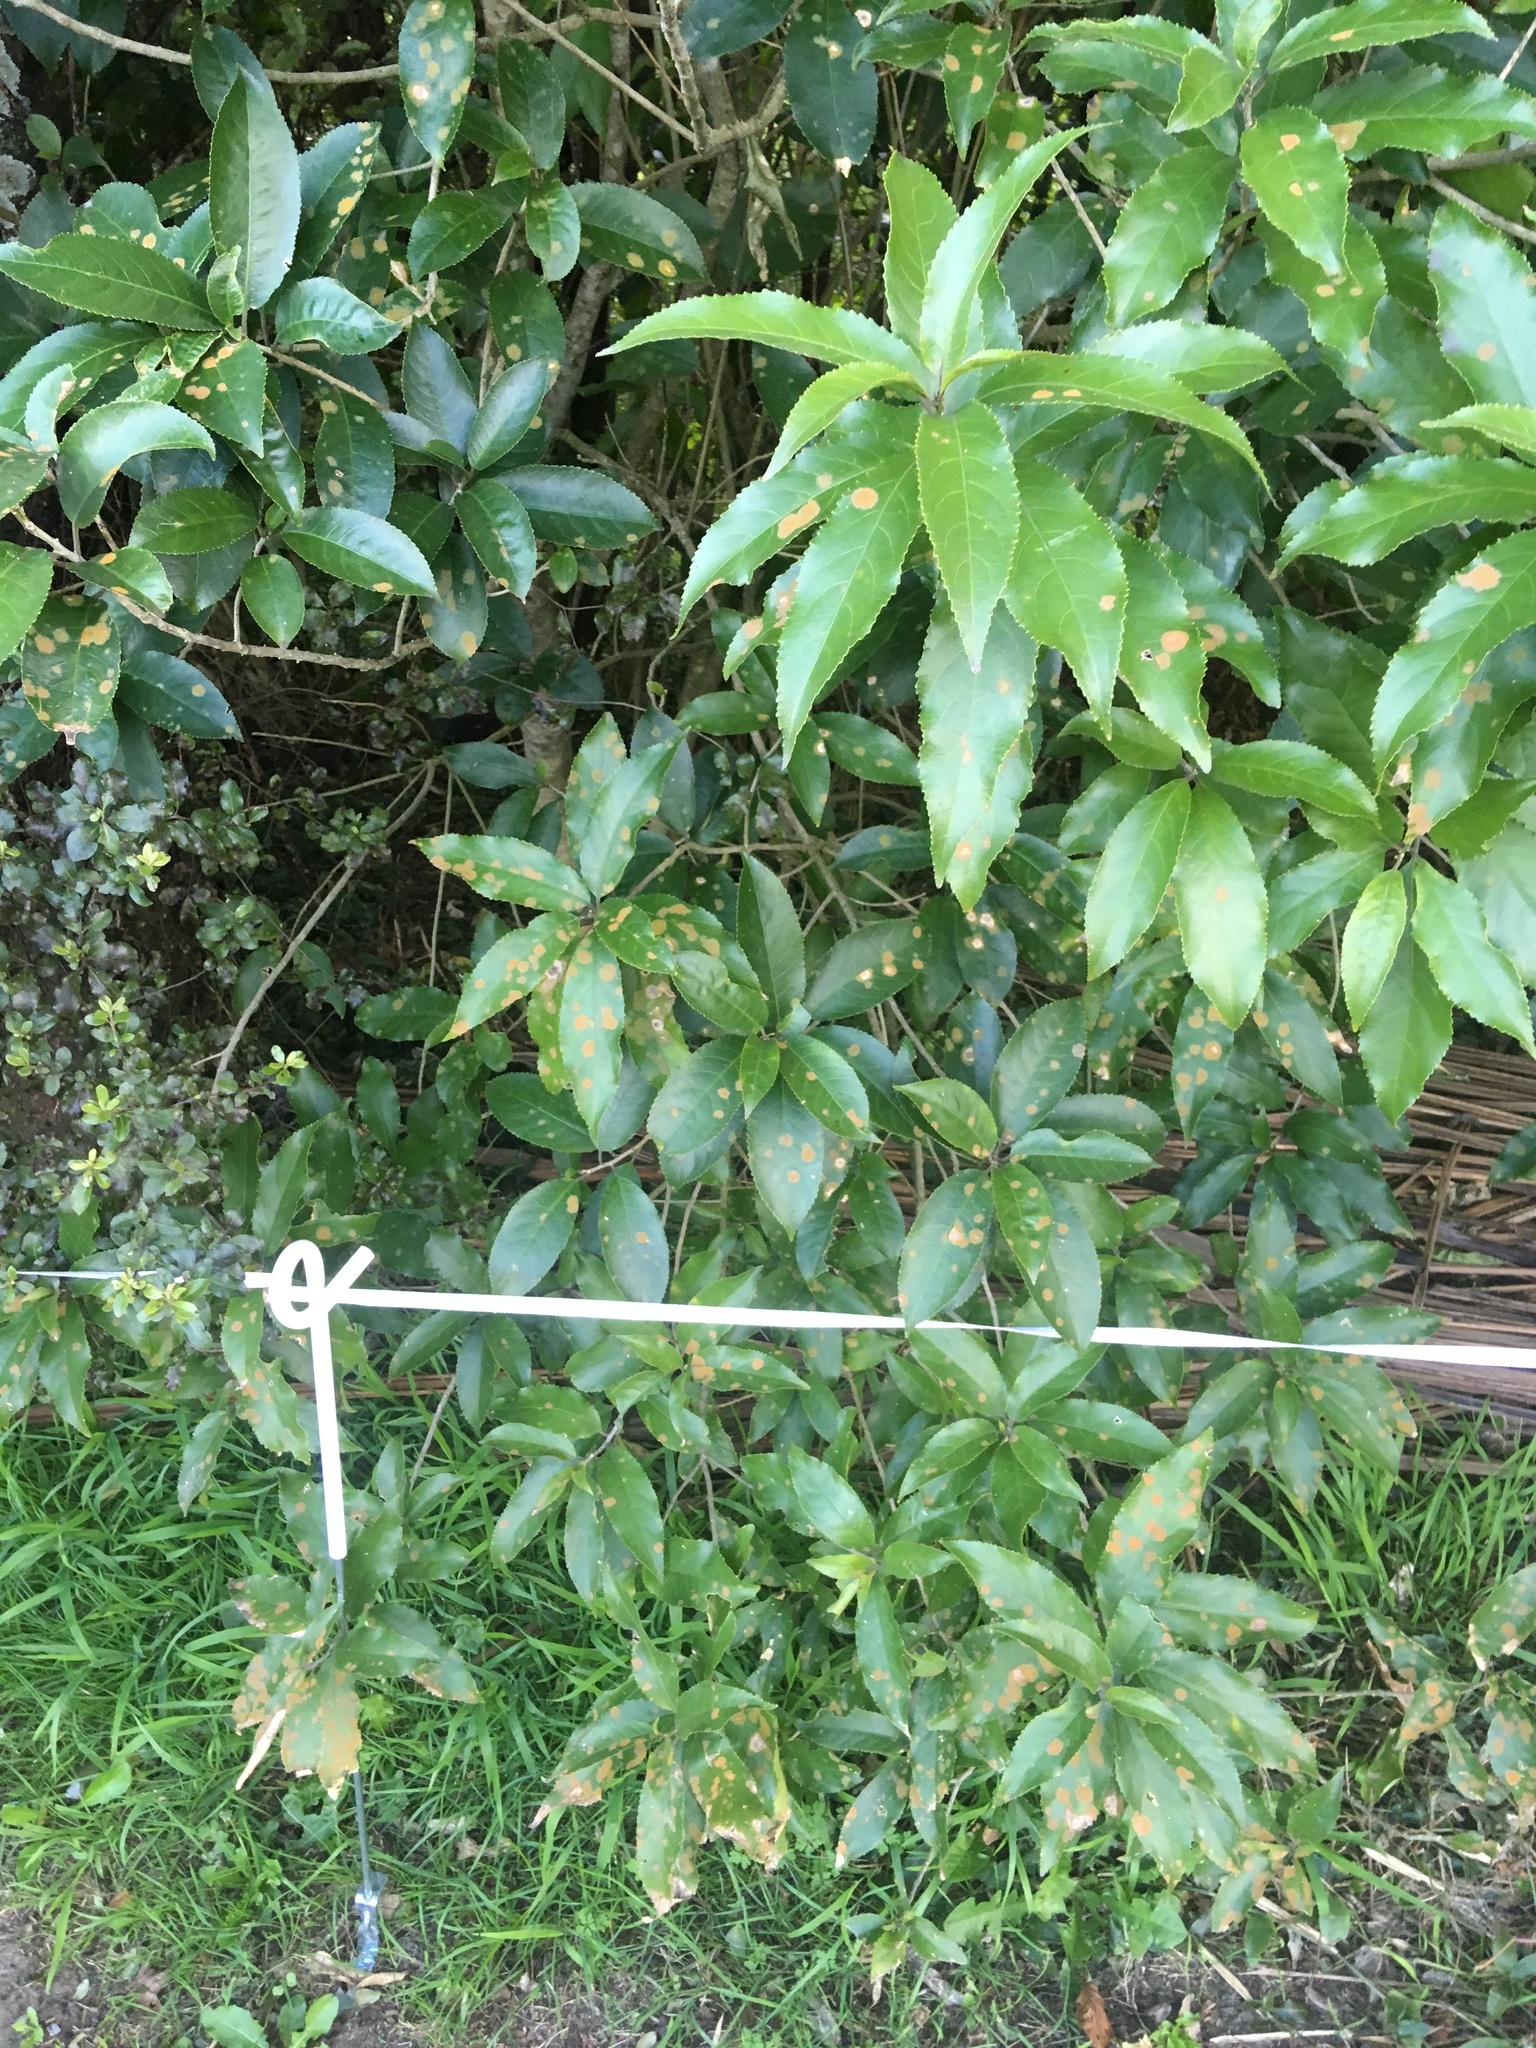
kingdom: Plantae
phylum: Tracheophyta
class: Magnoliopsida
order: Malpighiales
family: Violaceae
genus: Melicytus
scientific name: Melicytus ramiflorus
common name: Mahoe
